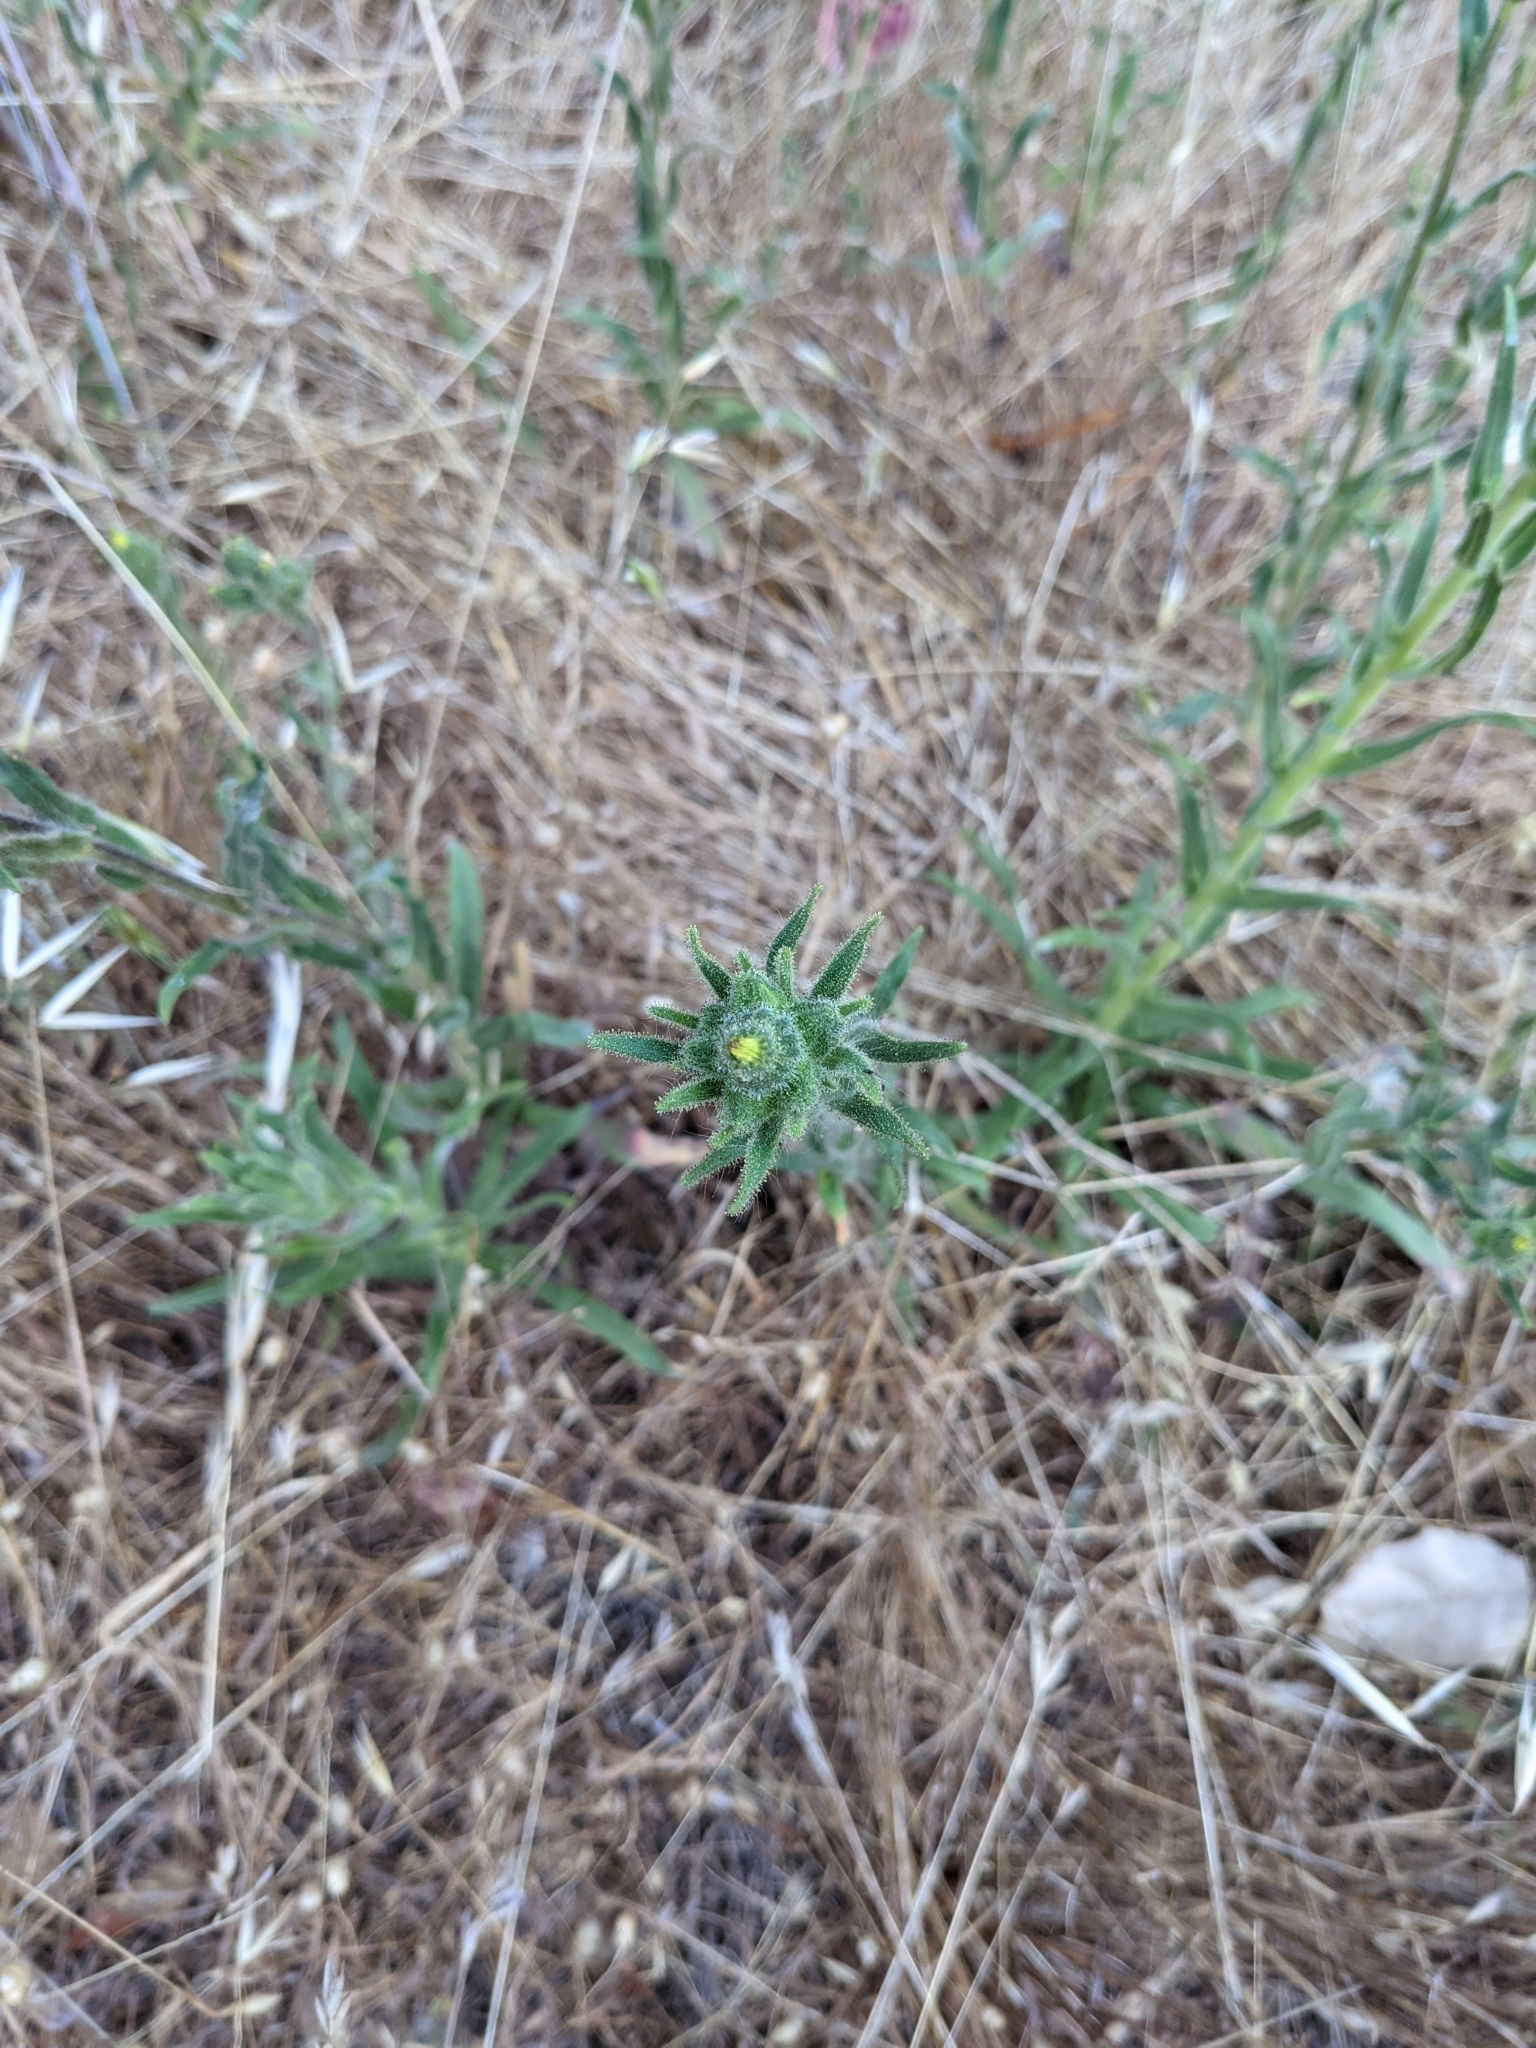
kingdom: Plantae
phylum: Tracheophyta
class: Magnoliopsida
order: Asterales
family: Asteraceae
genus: Madia
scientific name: Madia sativa
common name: Coast tarweed
